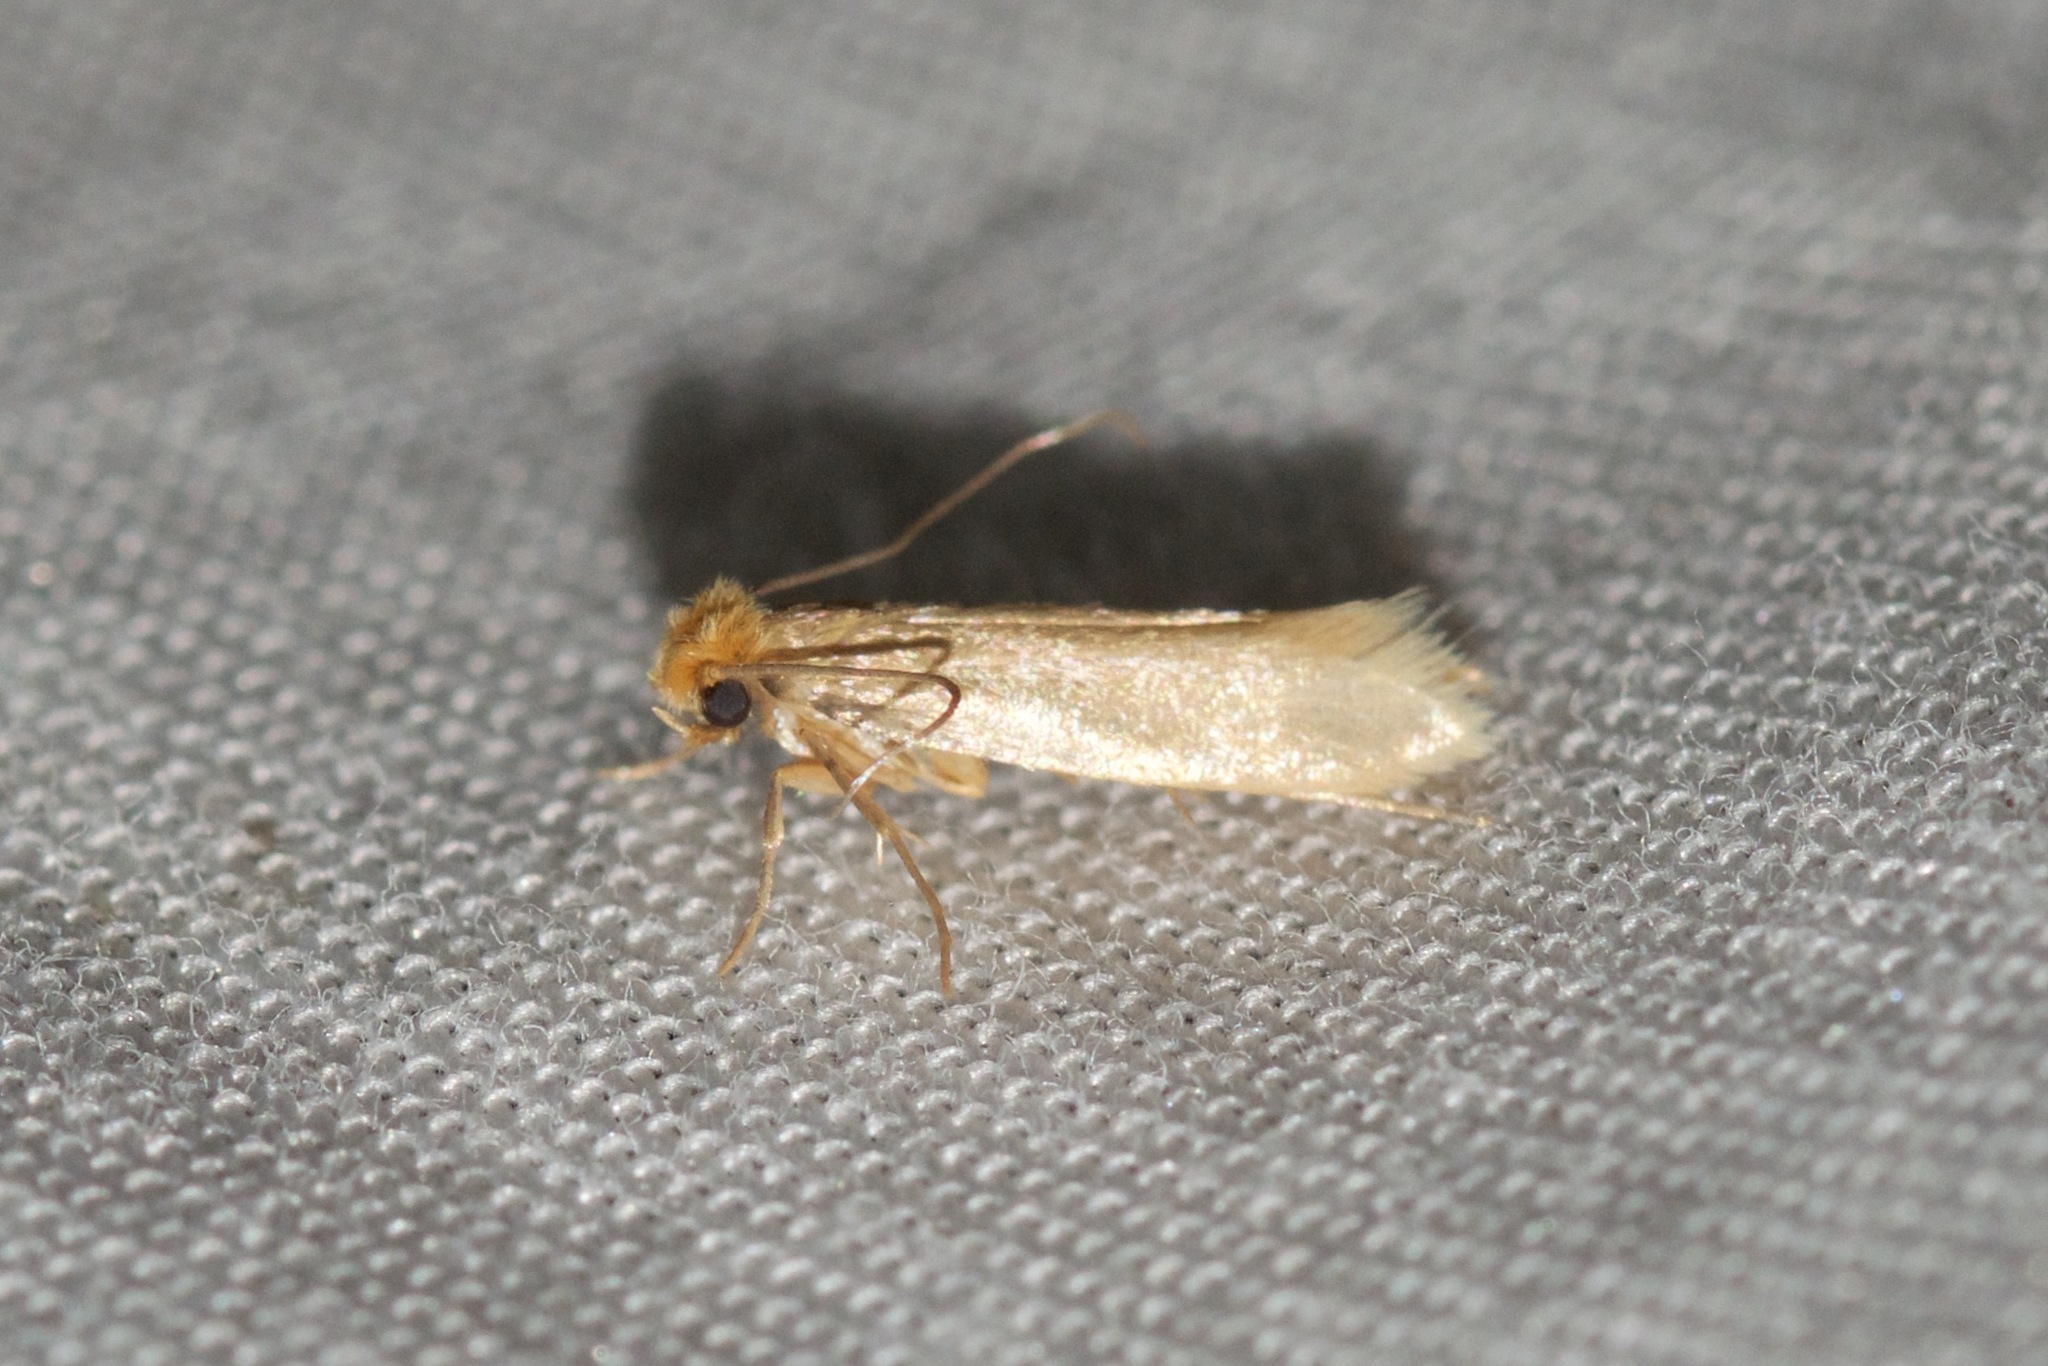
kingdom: Animalia
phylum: Arthropoda
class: Insecta
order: Lepidoptera
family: Tineidae
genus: Tineola
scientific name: Tineola bisselliella
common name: Webbing clothes moth
